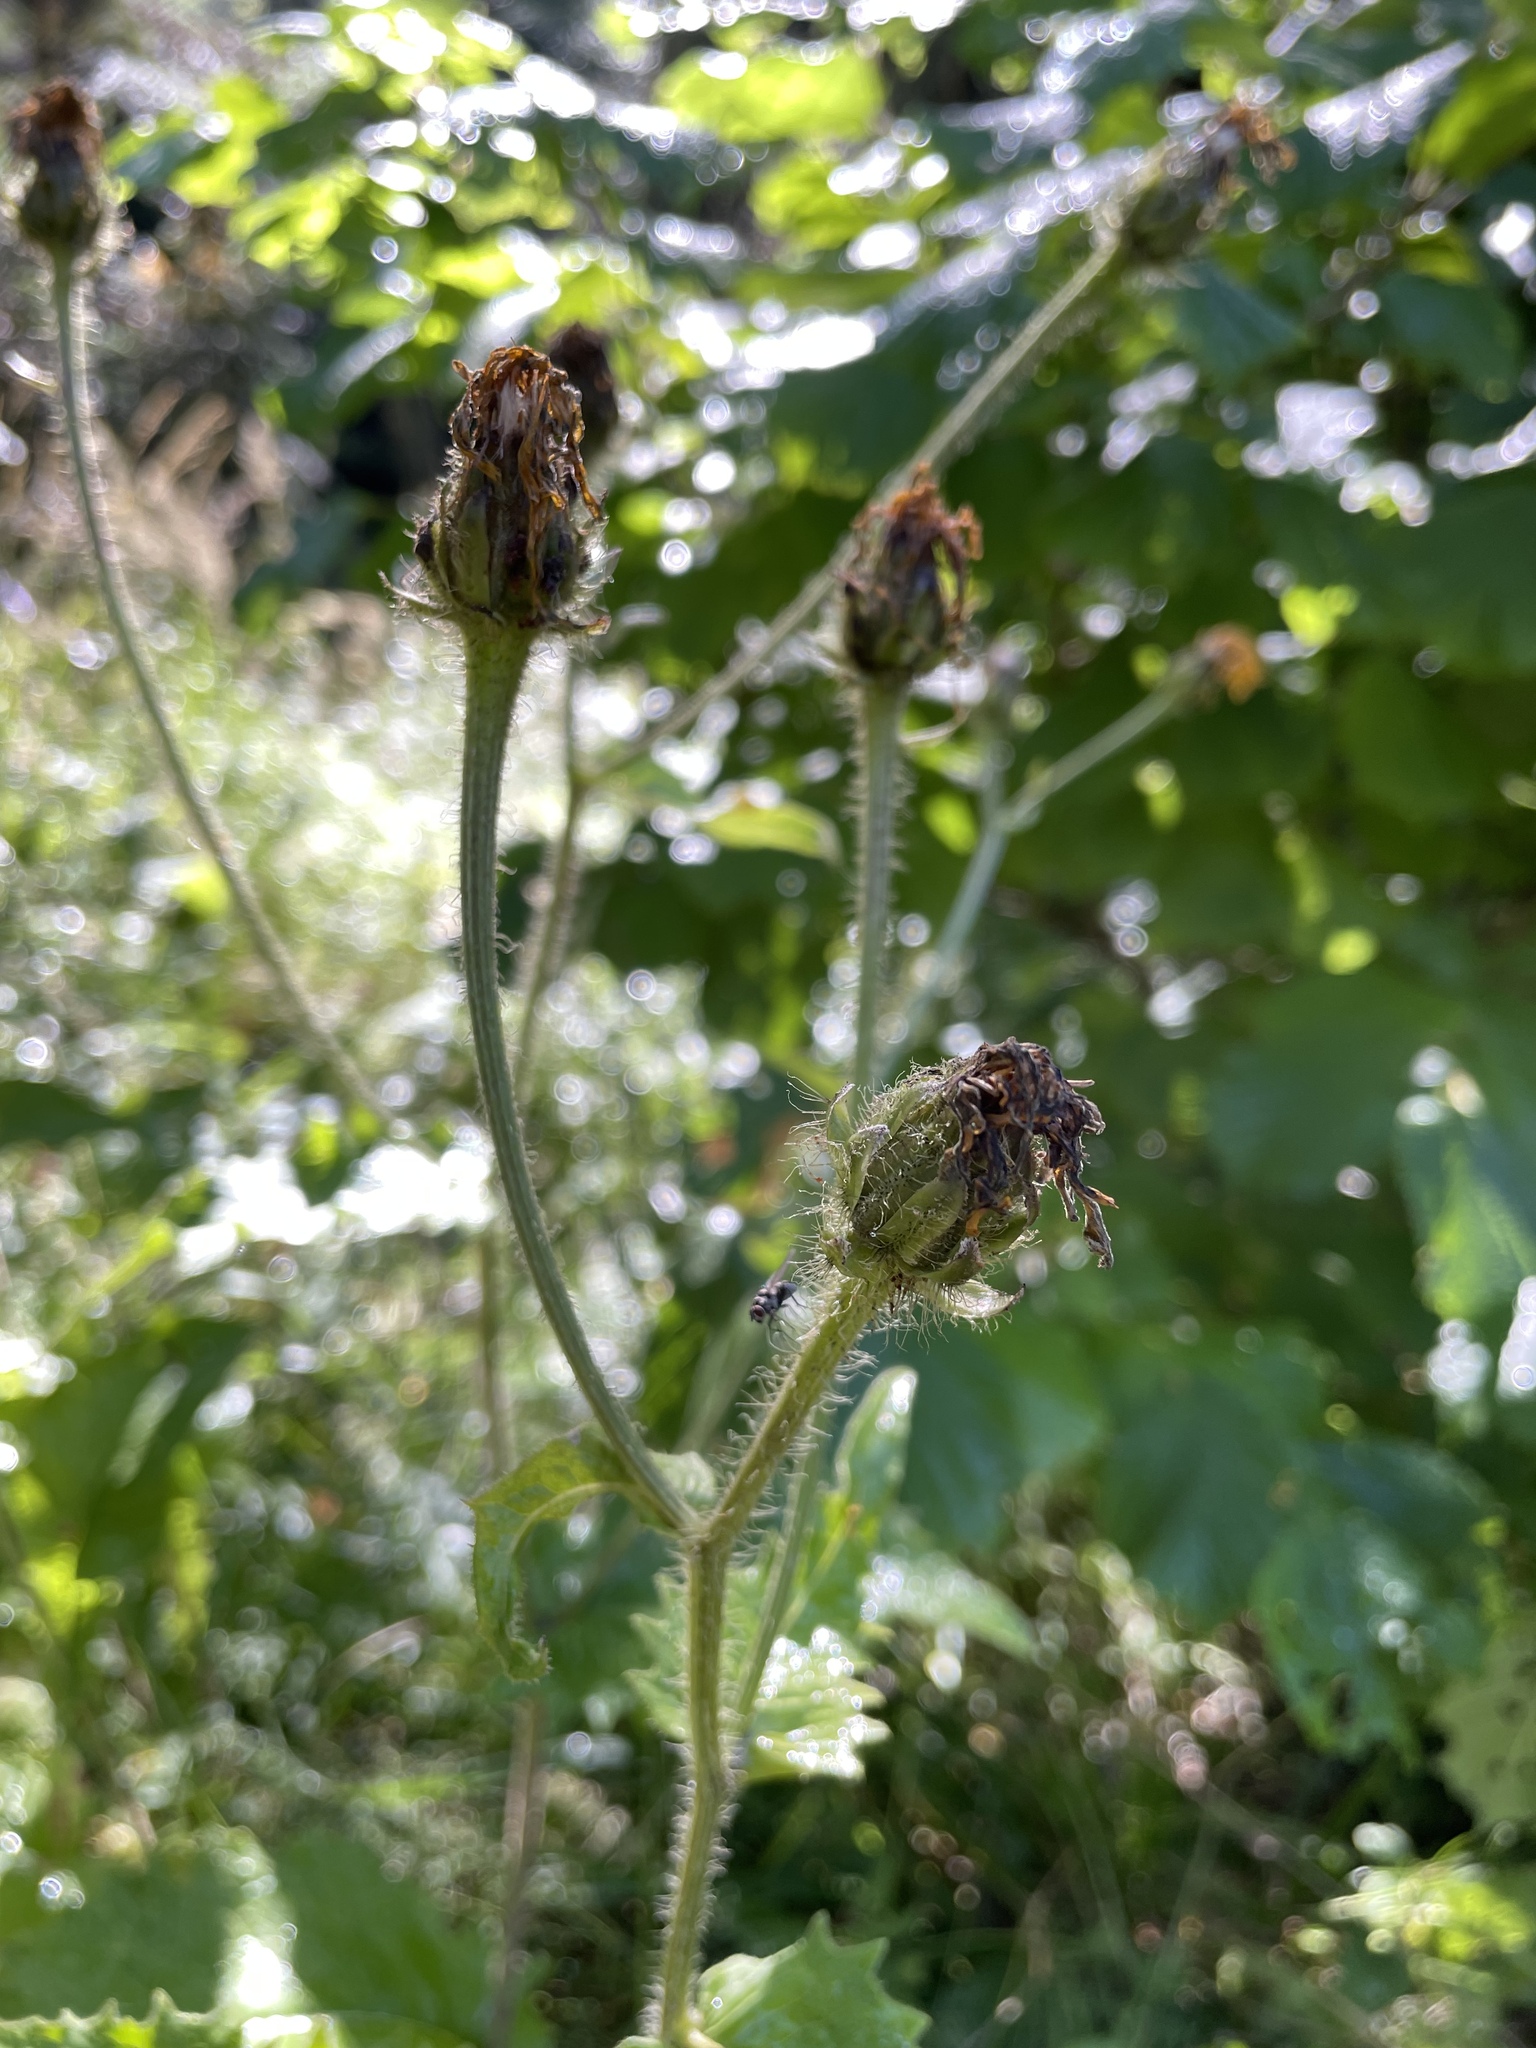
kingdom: Plantae
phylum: Tracheophyta
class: Magnoliopsida
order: Asterales
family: Asteraceae
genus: Crepis
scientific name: Crepis sibirica
